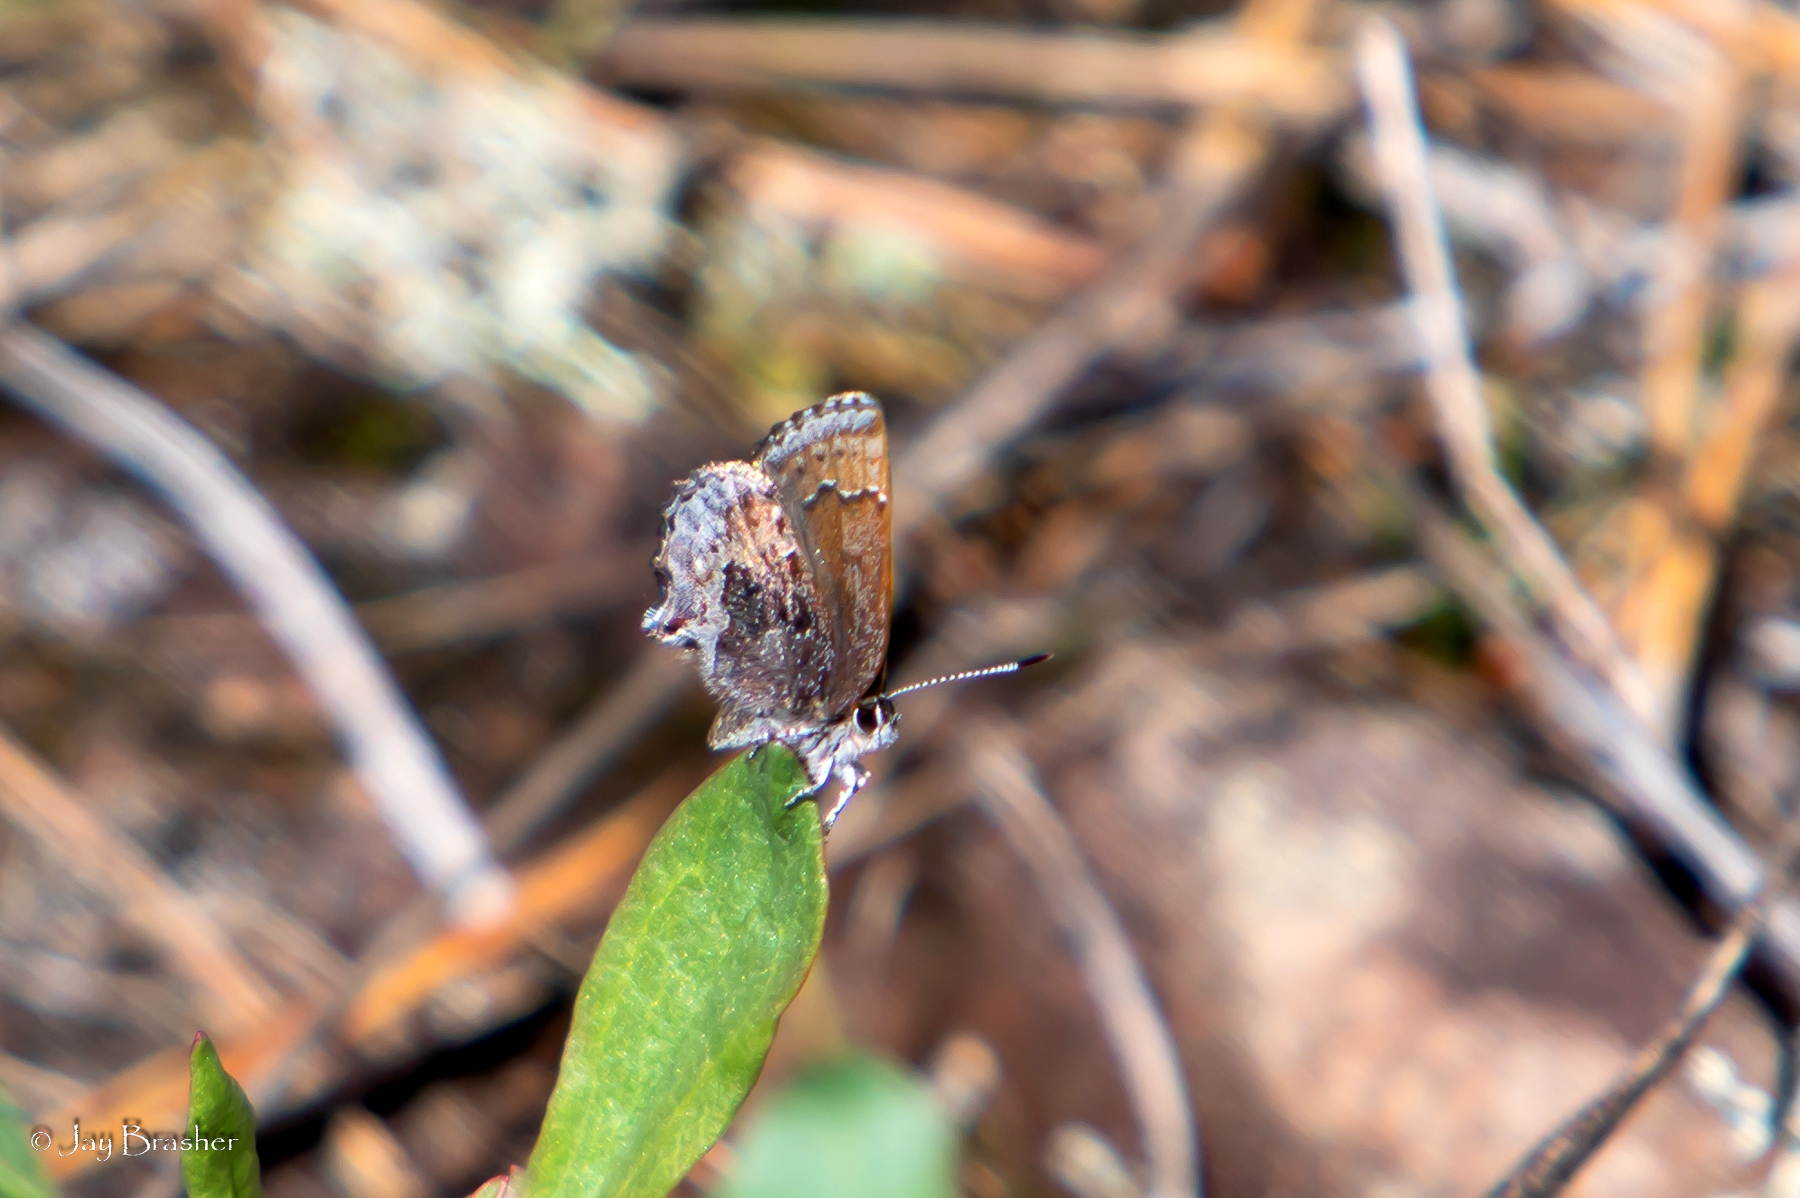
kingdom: Animalia
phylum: Arthropoda
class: Insecta
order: Lepidoptera
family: Lycaenidae
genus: Callophrys
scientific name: Callophrys polios
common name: Hoary elfin
